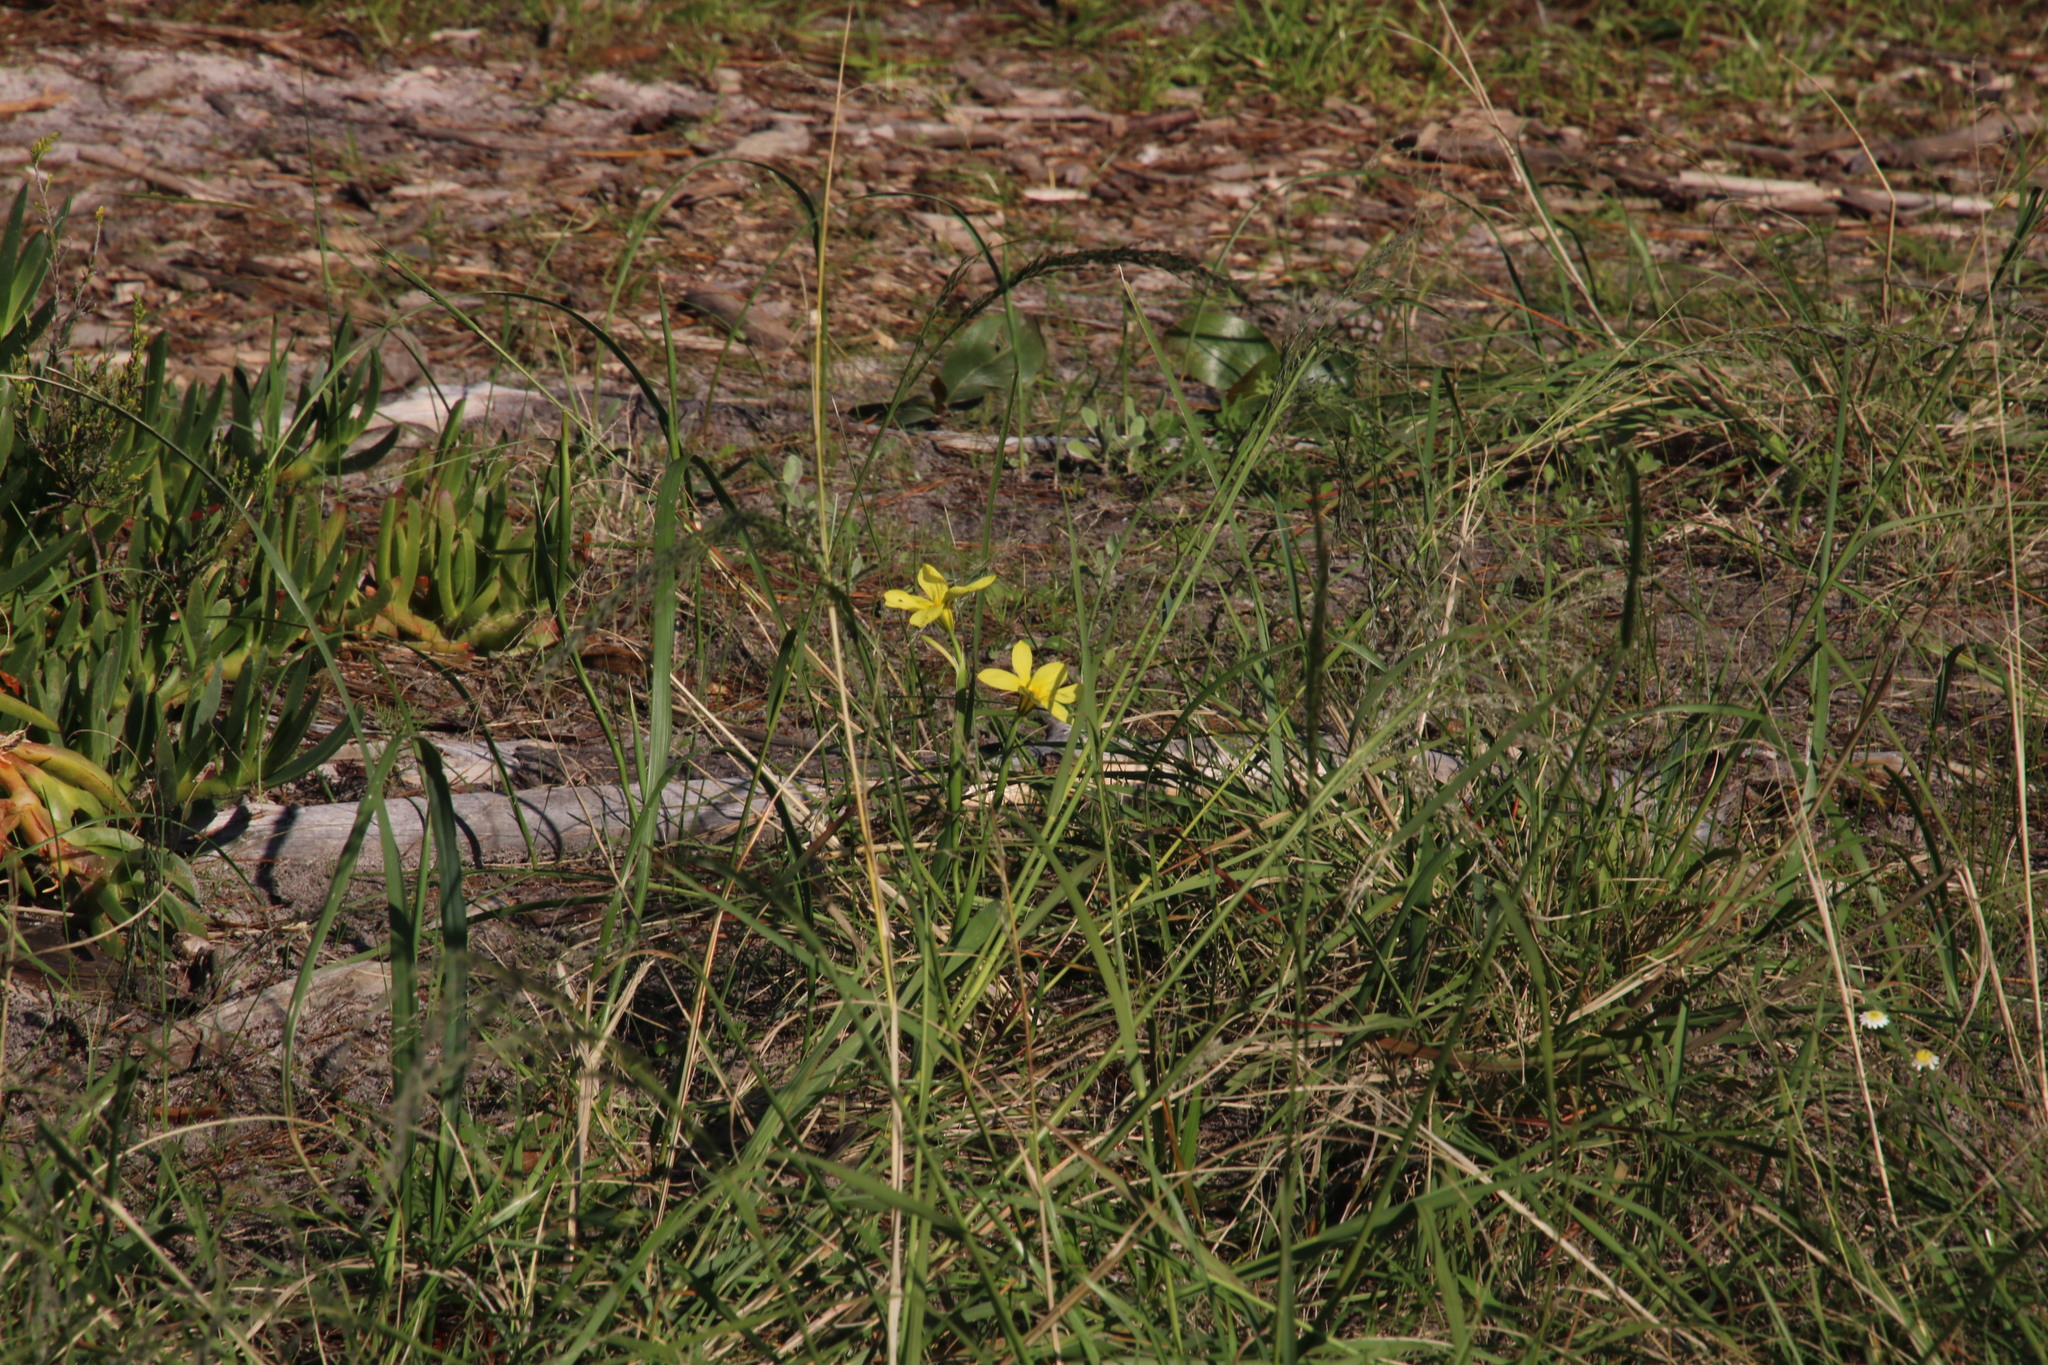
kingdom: Plantae
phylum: Tracheophyta
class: Liliopsida
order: Asparagales
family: Iridaceae
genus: Moraea
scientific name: Moraea collina
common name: Cape-tulip
